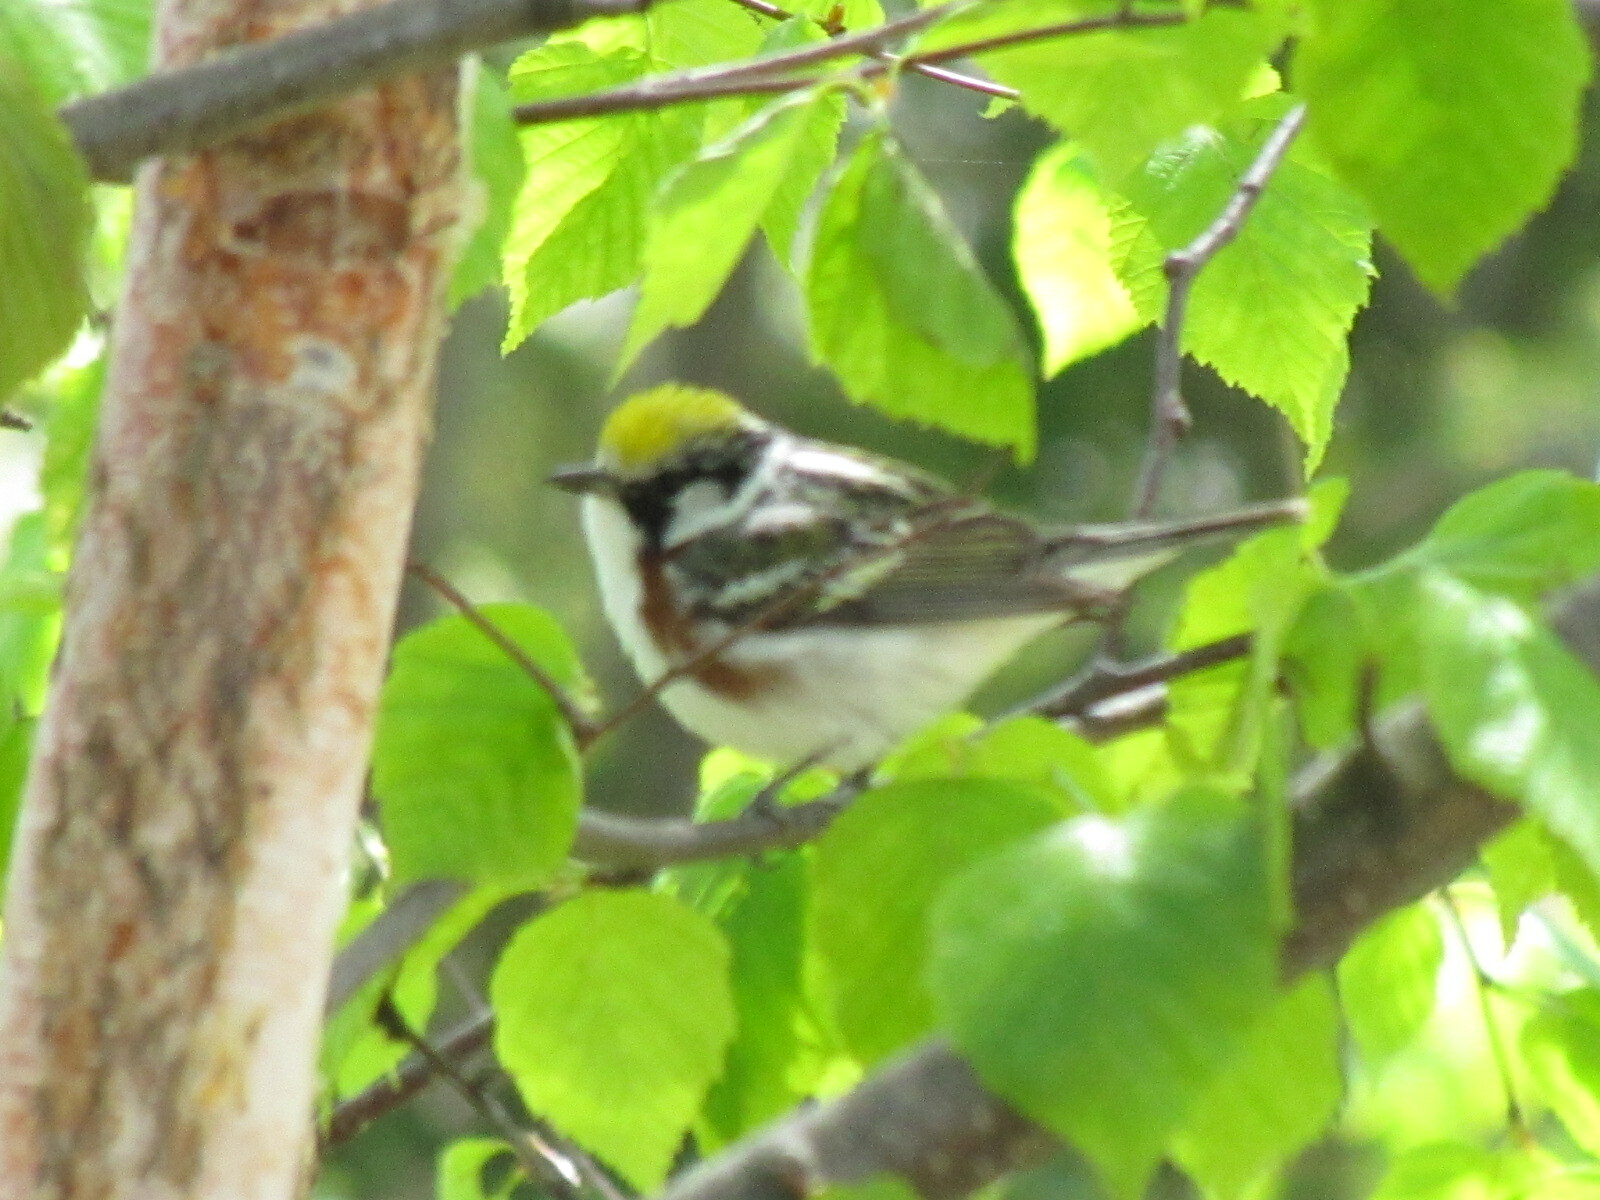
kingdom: Animalia
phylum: Chordata
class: Aves
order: Passeriformes
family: Parulidae
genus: Setophaga
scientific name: Setophaga pensylvanica
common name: Chestnut-sided warbler
